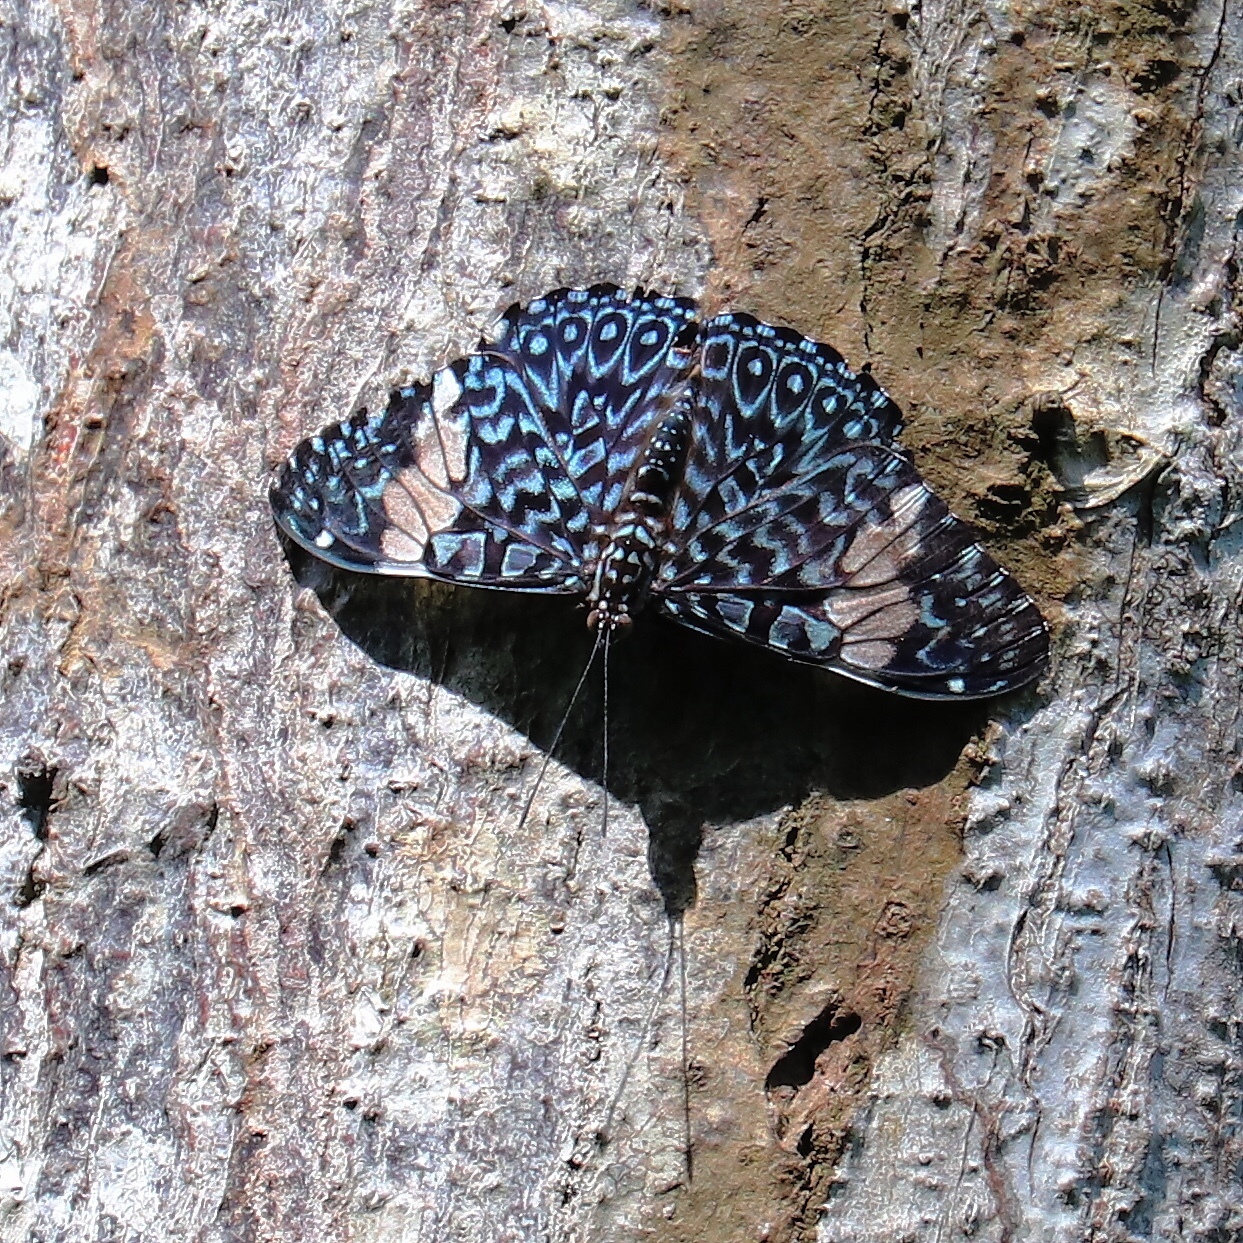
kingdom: Animalia
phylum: Arthropoda
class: Insecta
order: Lepidoptera
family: Nymphalidae
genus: Hamadryas
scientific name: Hamadryas amphinome
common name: Red cracker
